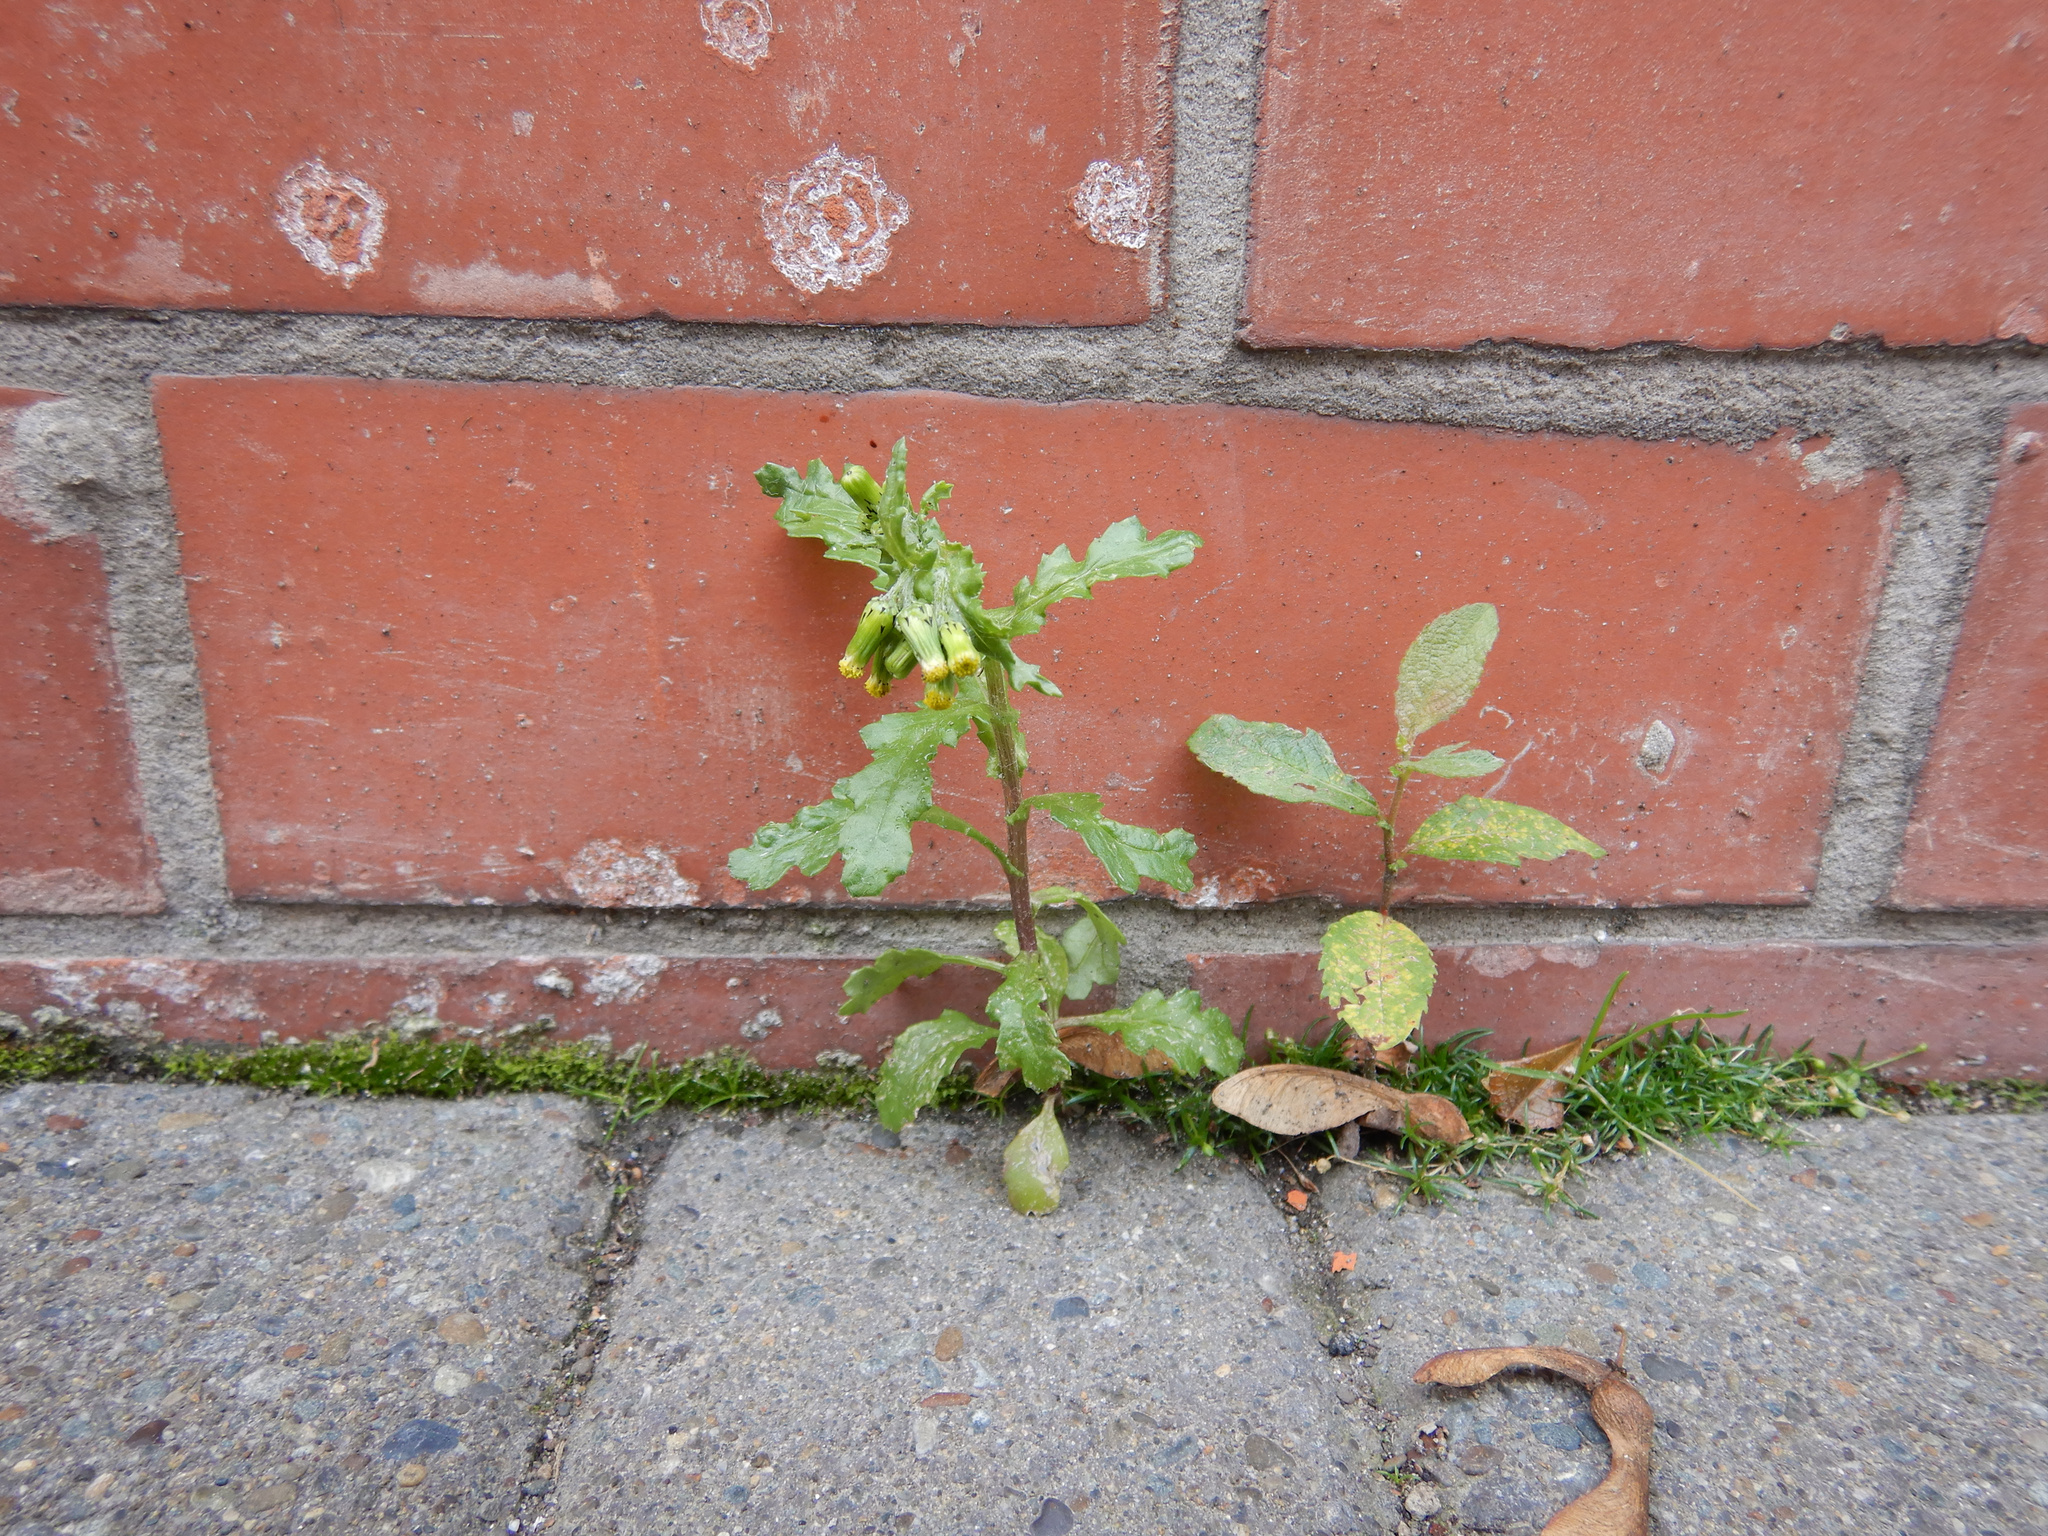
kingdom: Plantae
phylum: Tracheophyta
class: Magnoliopsida
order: Asterales
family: Asteraceae
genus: Senecio
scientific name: Senecio vulgaris
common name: Old-man-in-the-spring
